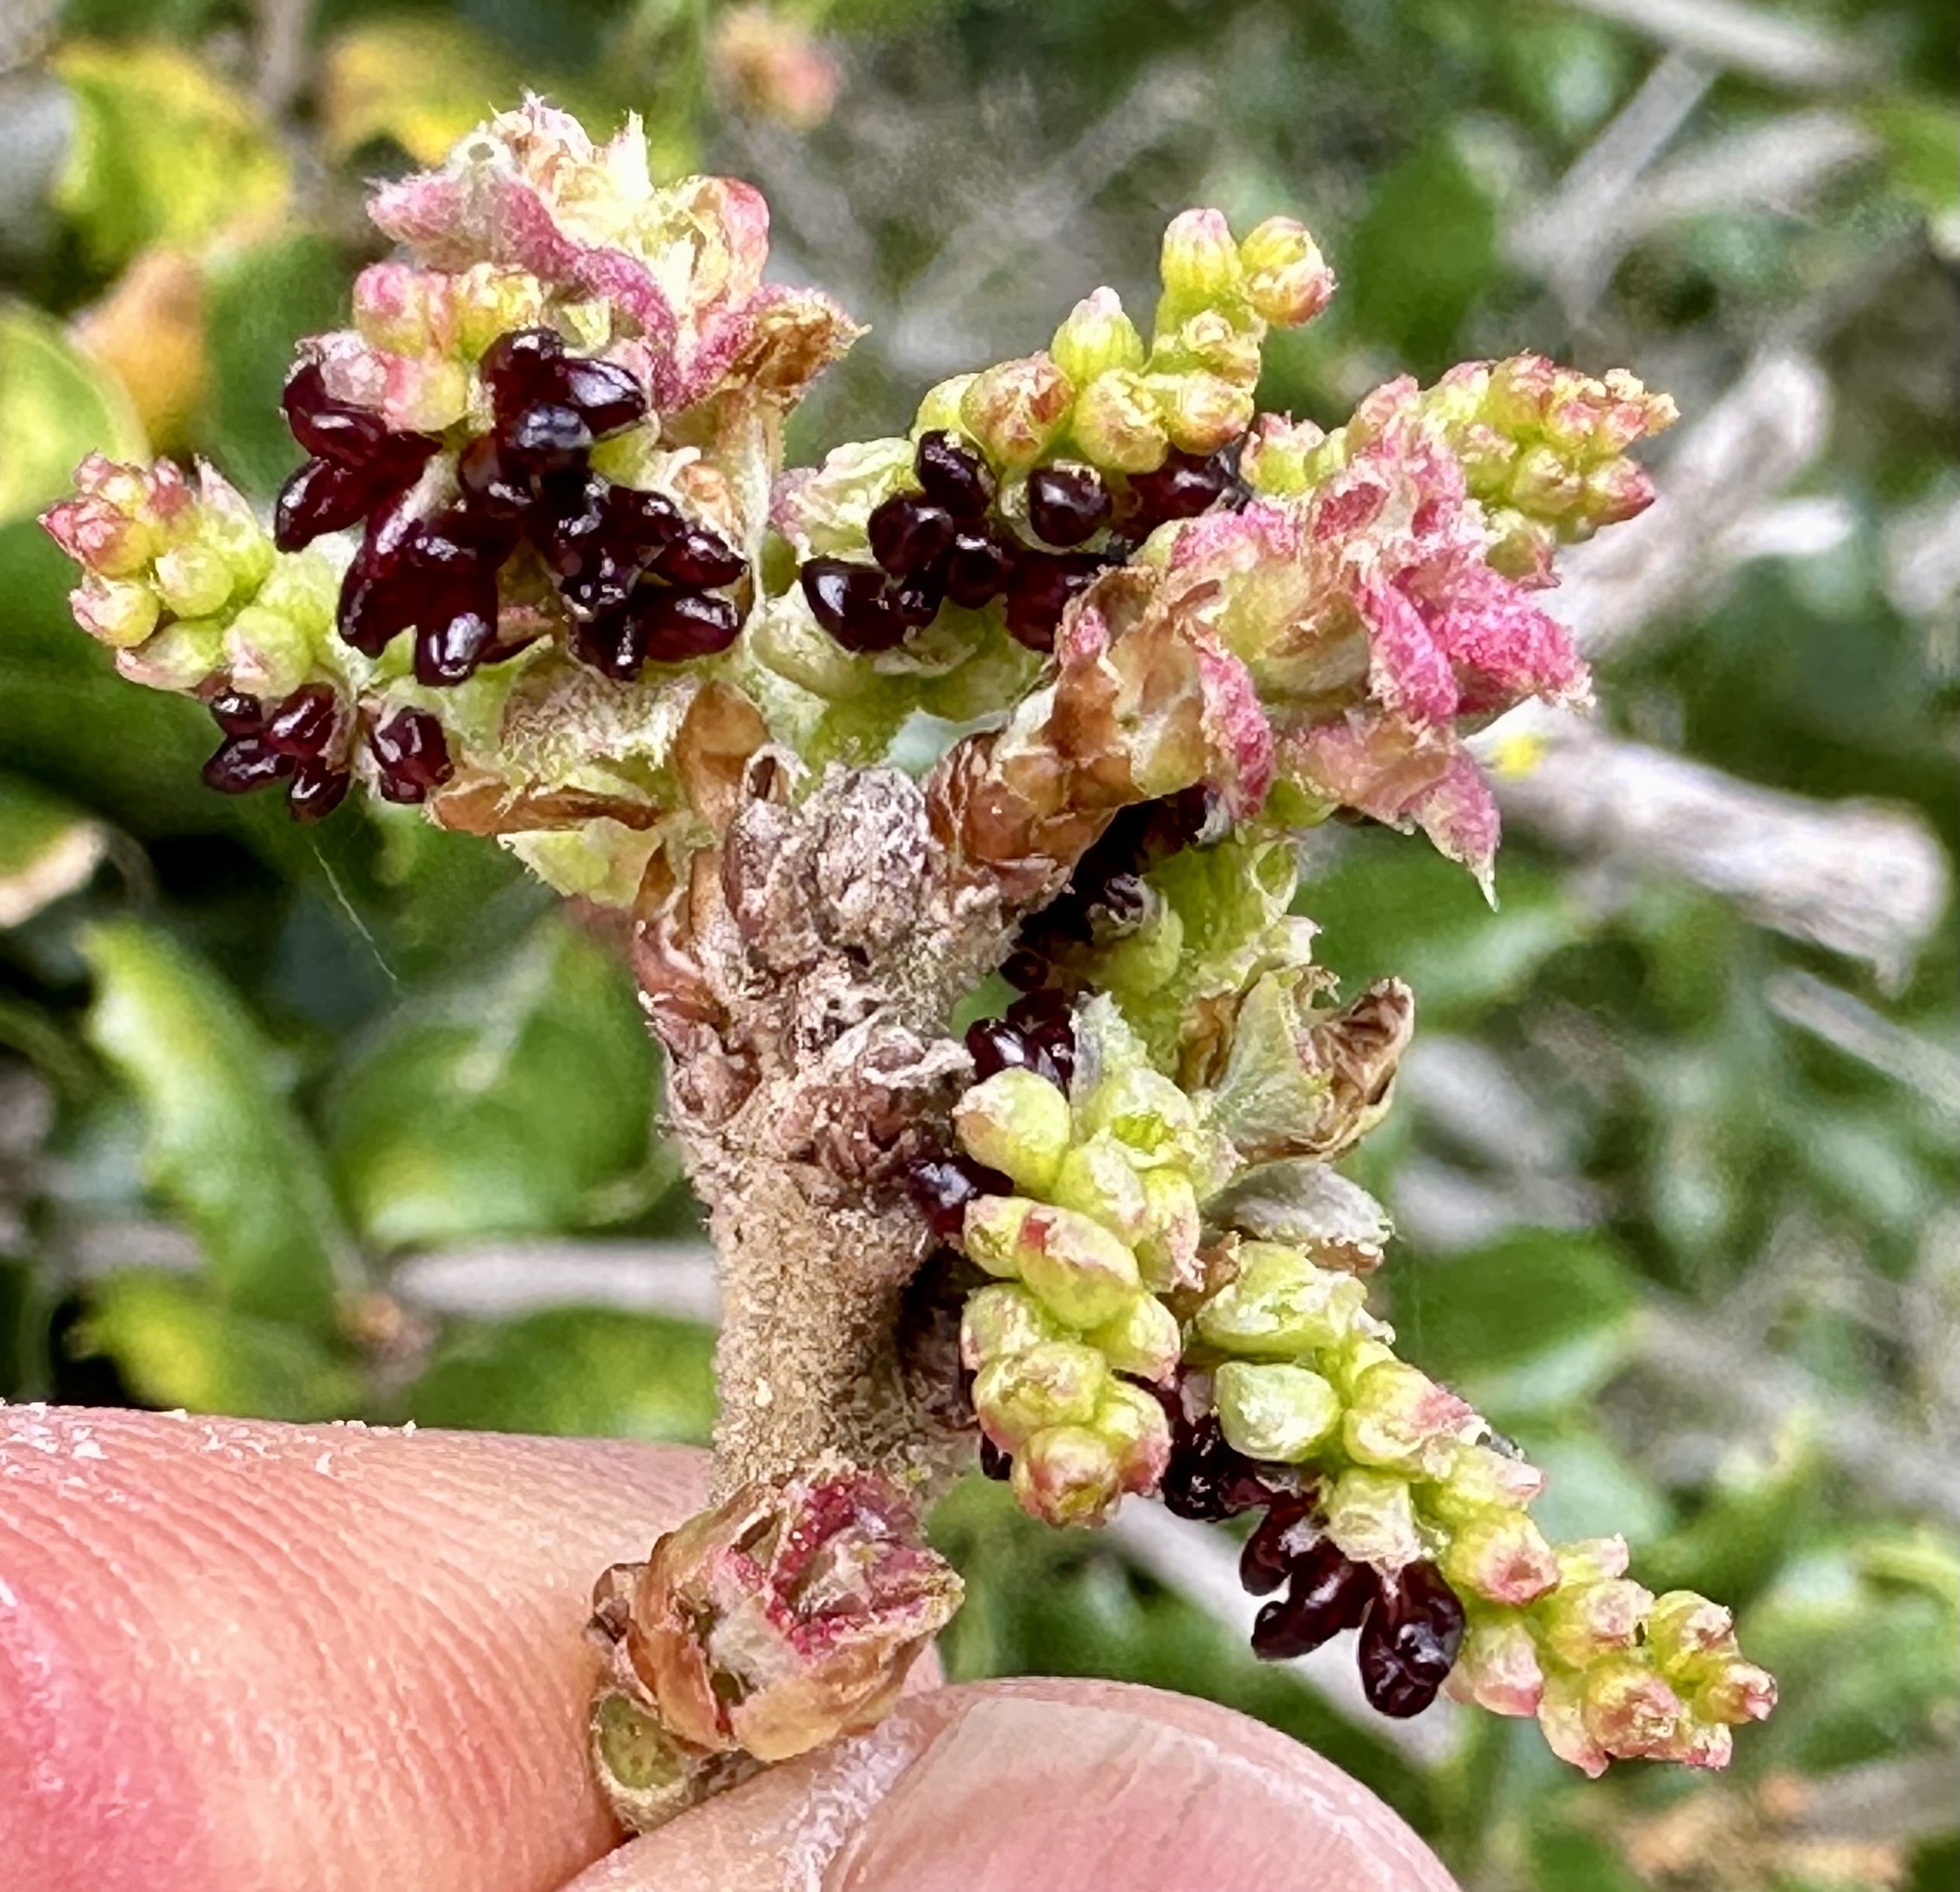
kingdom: Animalia
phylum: Arthropoda
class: Insecta
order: Hymenoptera
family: Cynipidae
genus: Dryocosmus
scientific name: Dryocosmus
